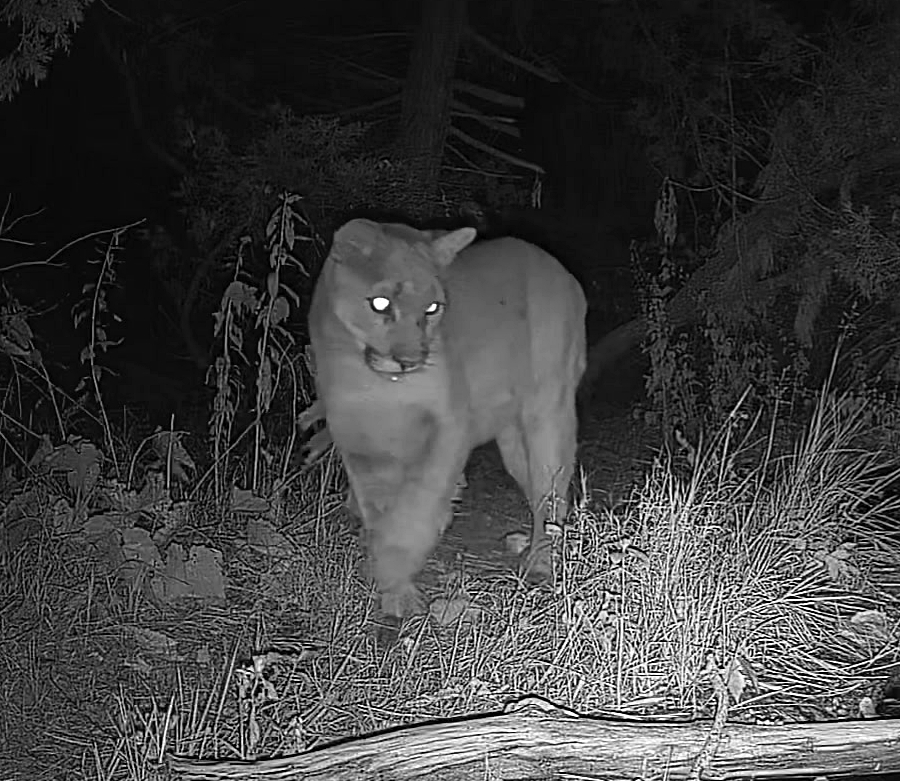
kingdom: Animalia
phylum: Chordata
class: Mammalia
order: Carnivora
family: Felidae
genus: Puma
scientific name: Puma concolor
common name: Puma
